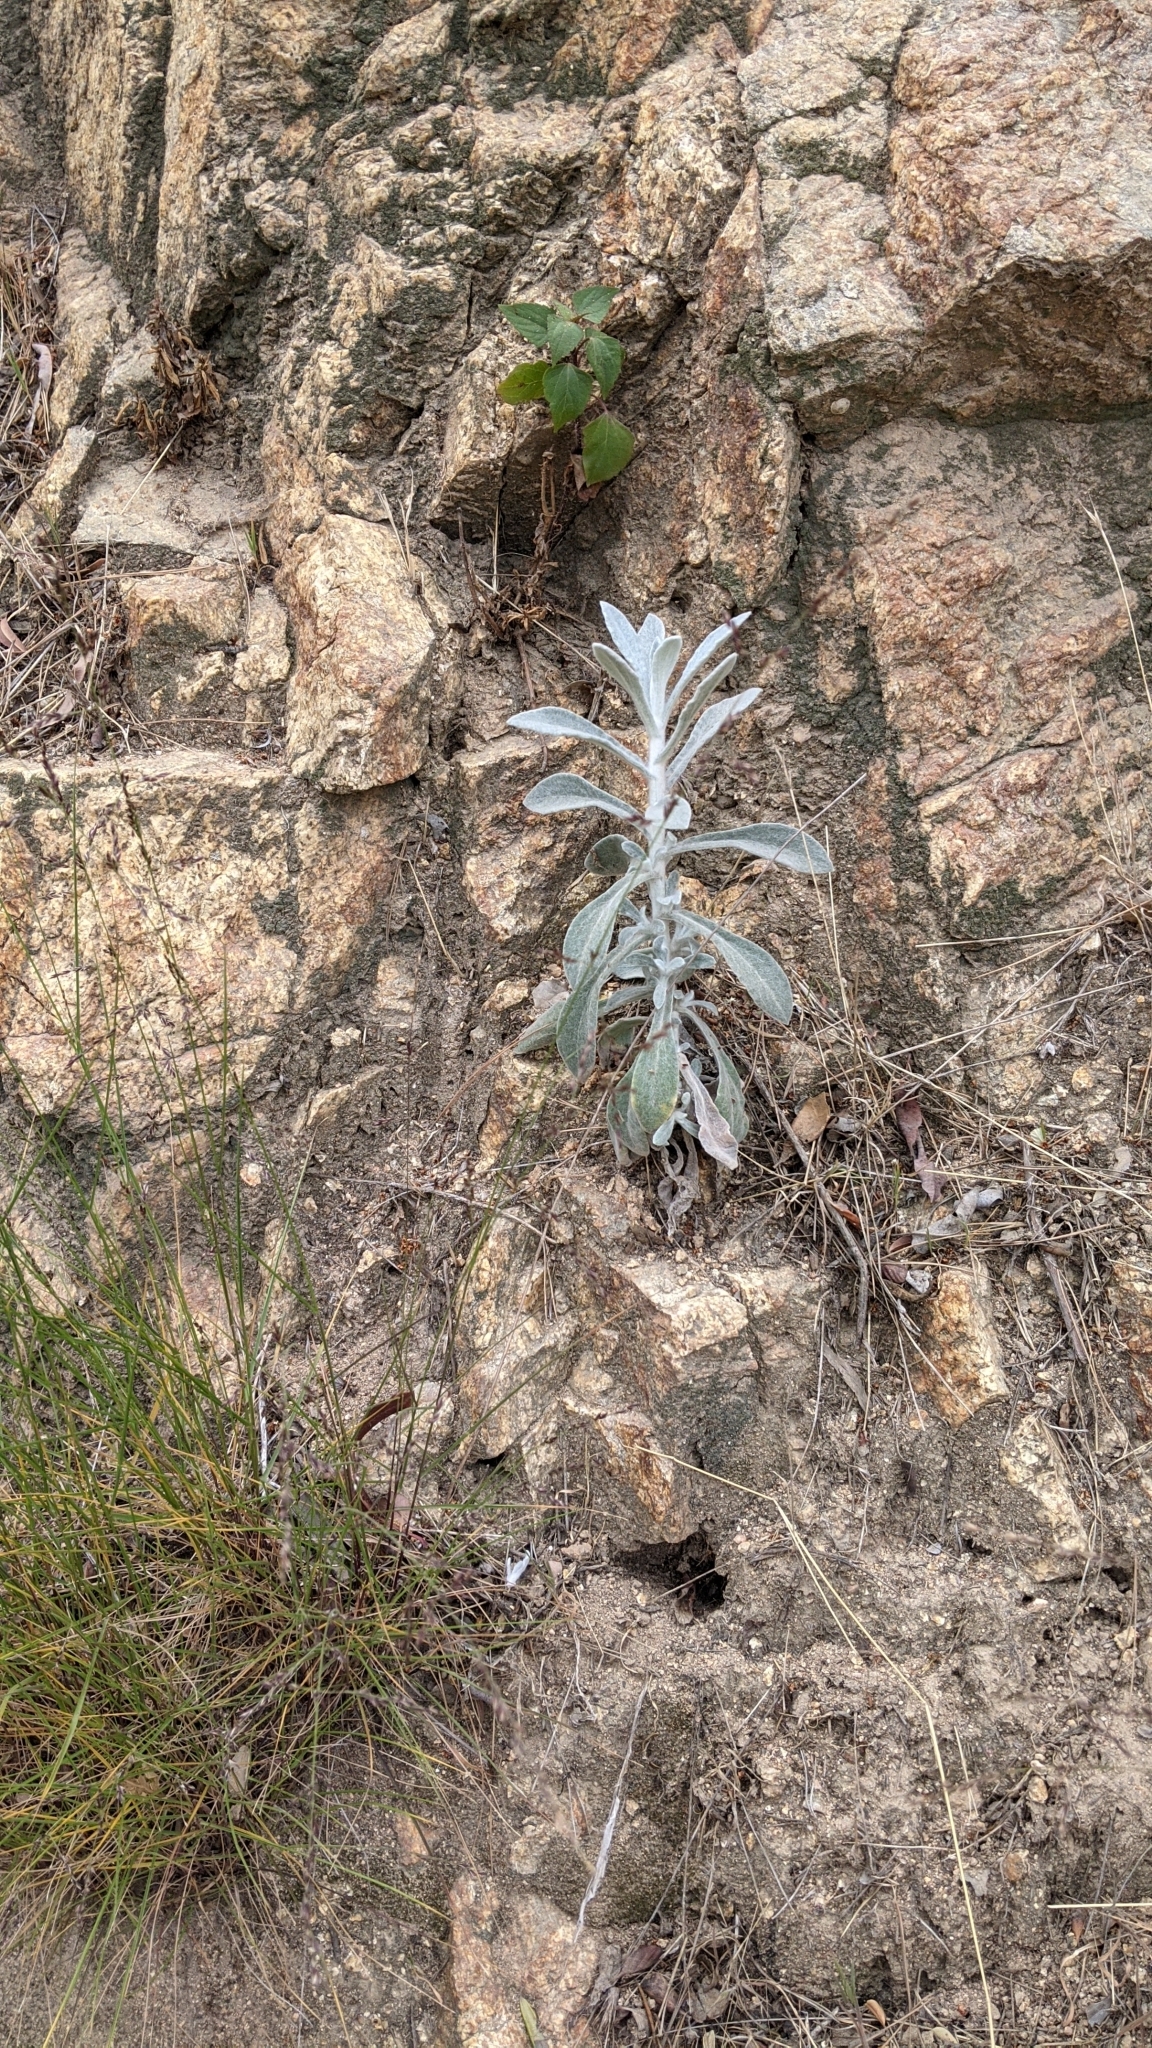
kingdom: Plantae
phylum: Tracheophyta
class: Magnoliopsida
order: Asterales
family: Asteraceae
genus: Pseudognaphalium
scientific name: Pseudognaphalium microcephalum
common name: San diego rabbit-tobacco
